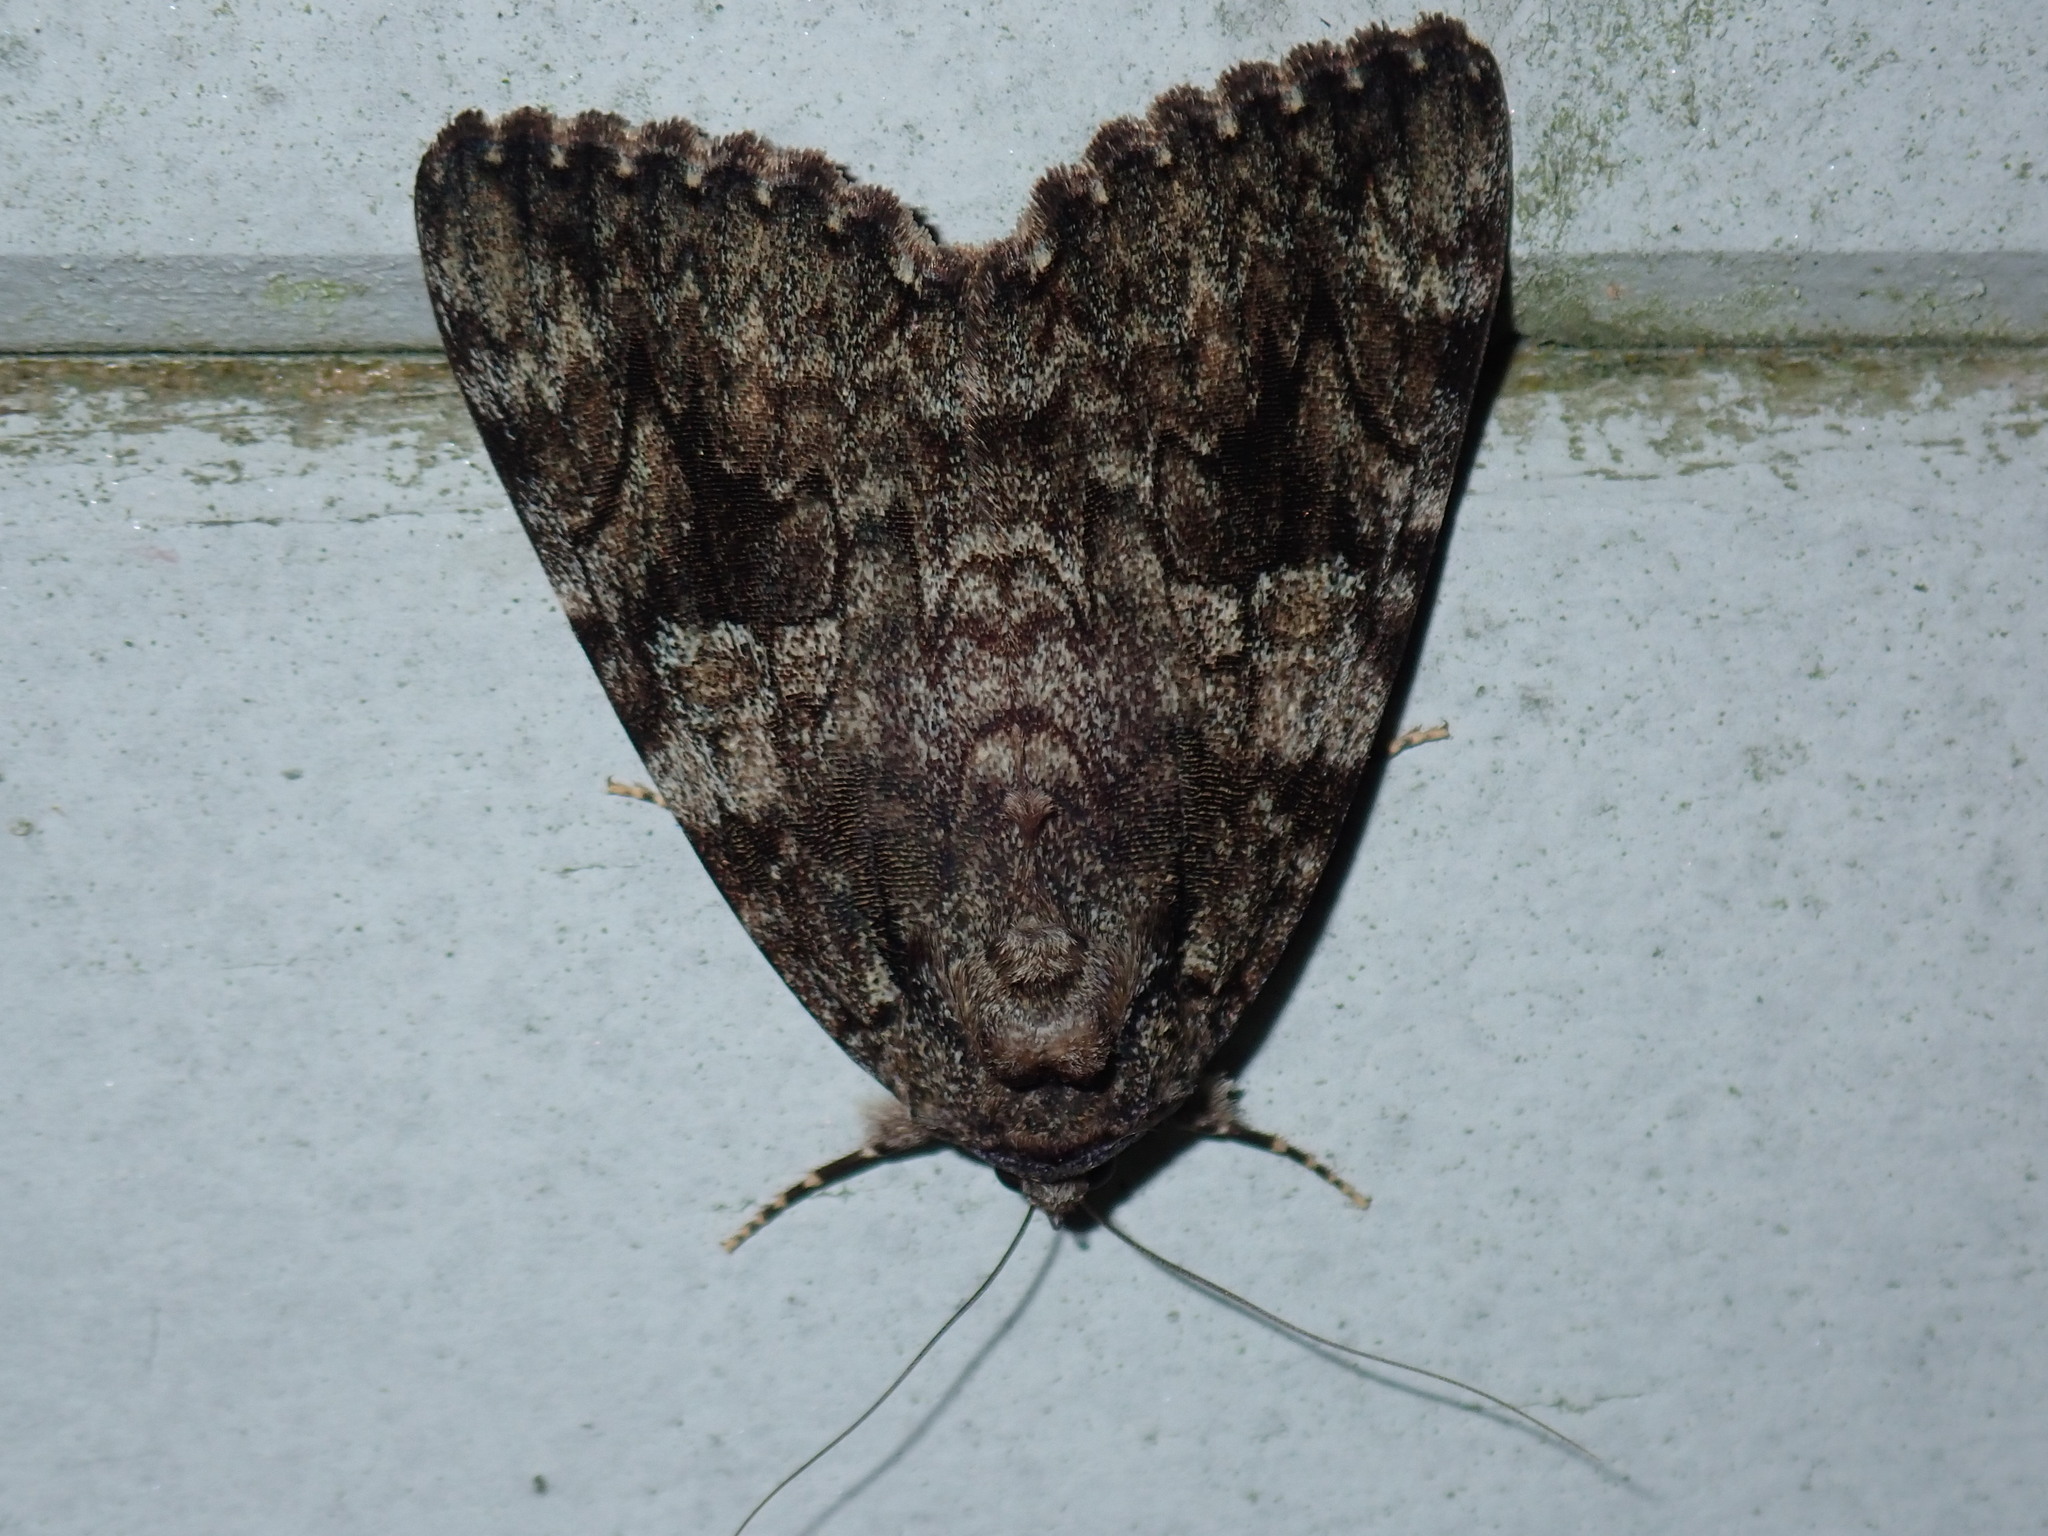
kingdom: Animalia
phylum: Arthropoda
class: Insecta
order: Lepidoptera
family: Erebidae
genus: Catocala
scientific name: Catocala ilia
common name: Ilia underwing
